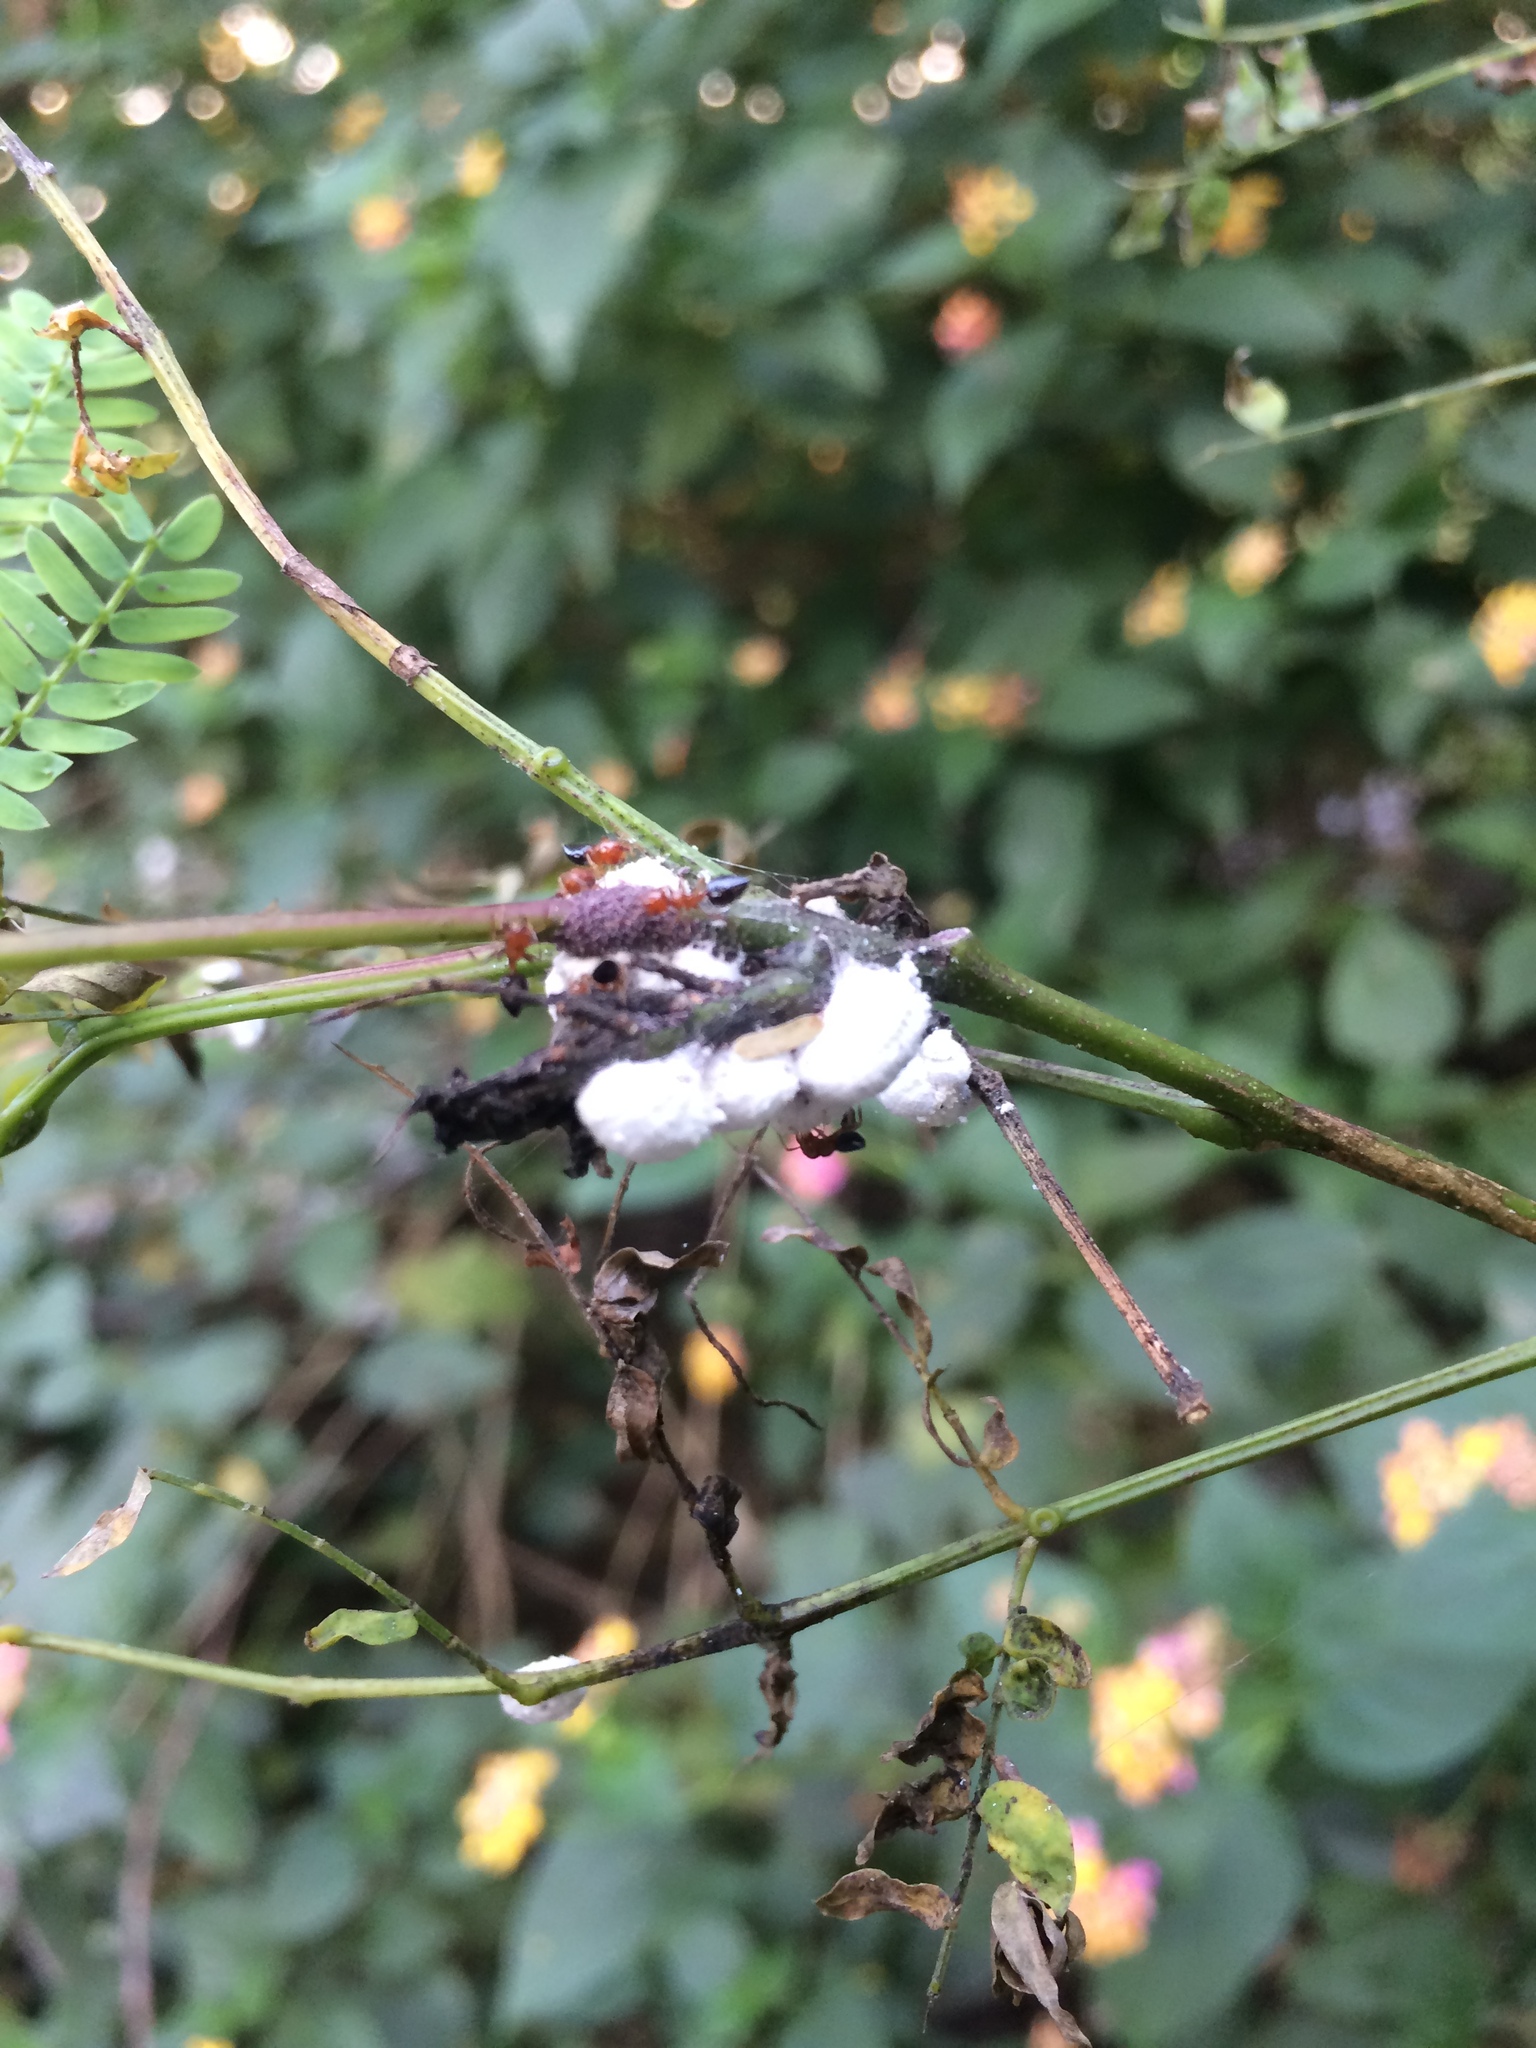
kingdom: Animalia
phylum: Arthropoda
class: Insecta
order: Hymenoptera
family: Formicidae
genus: Crematogaster
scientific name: Crematogaster
